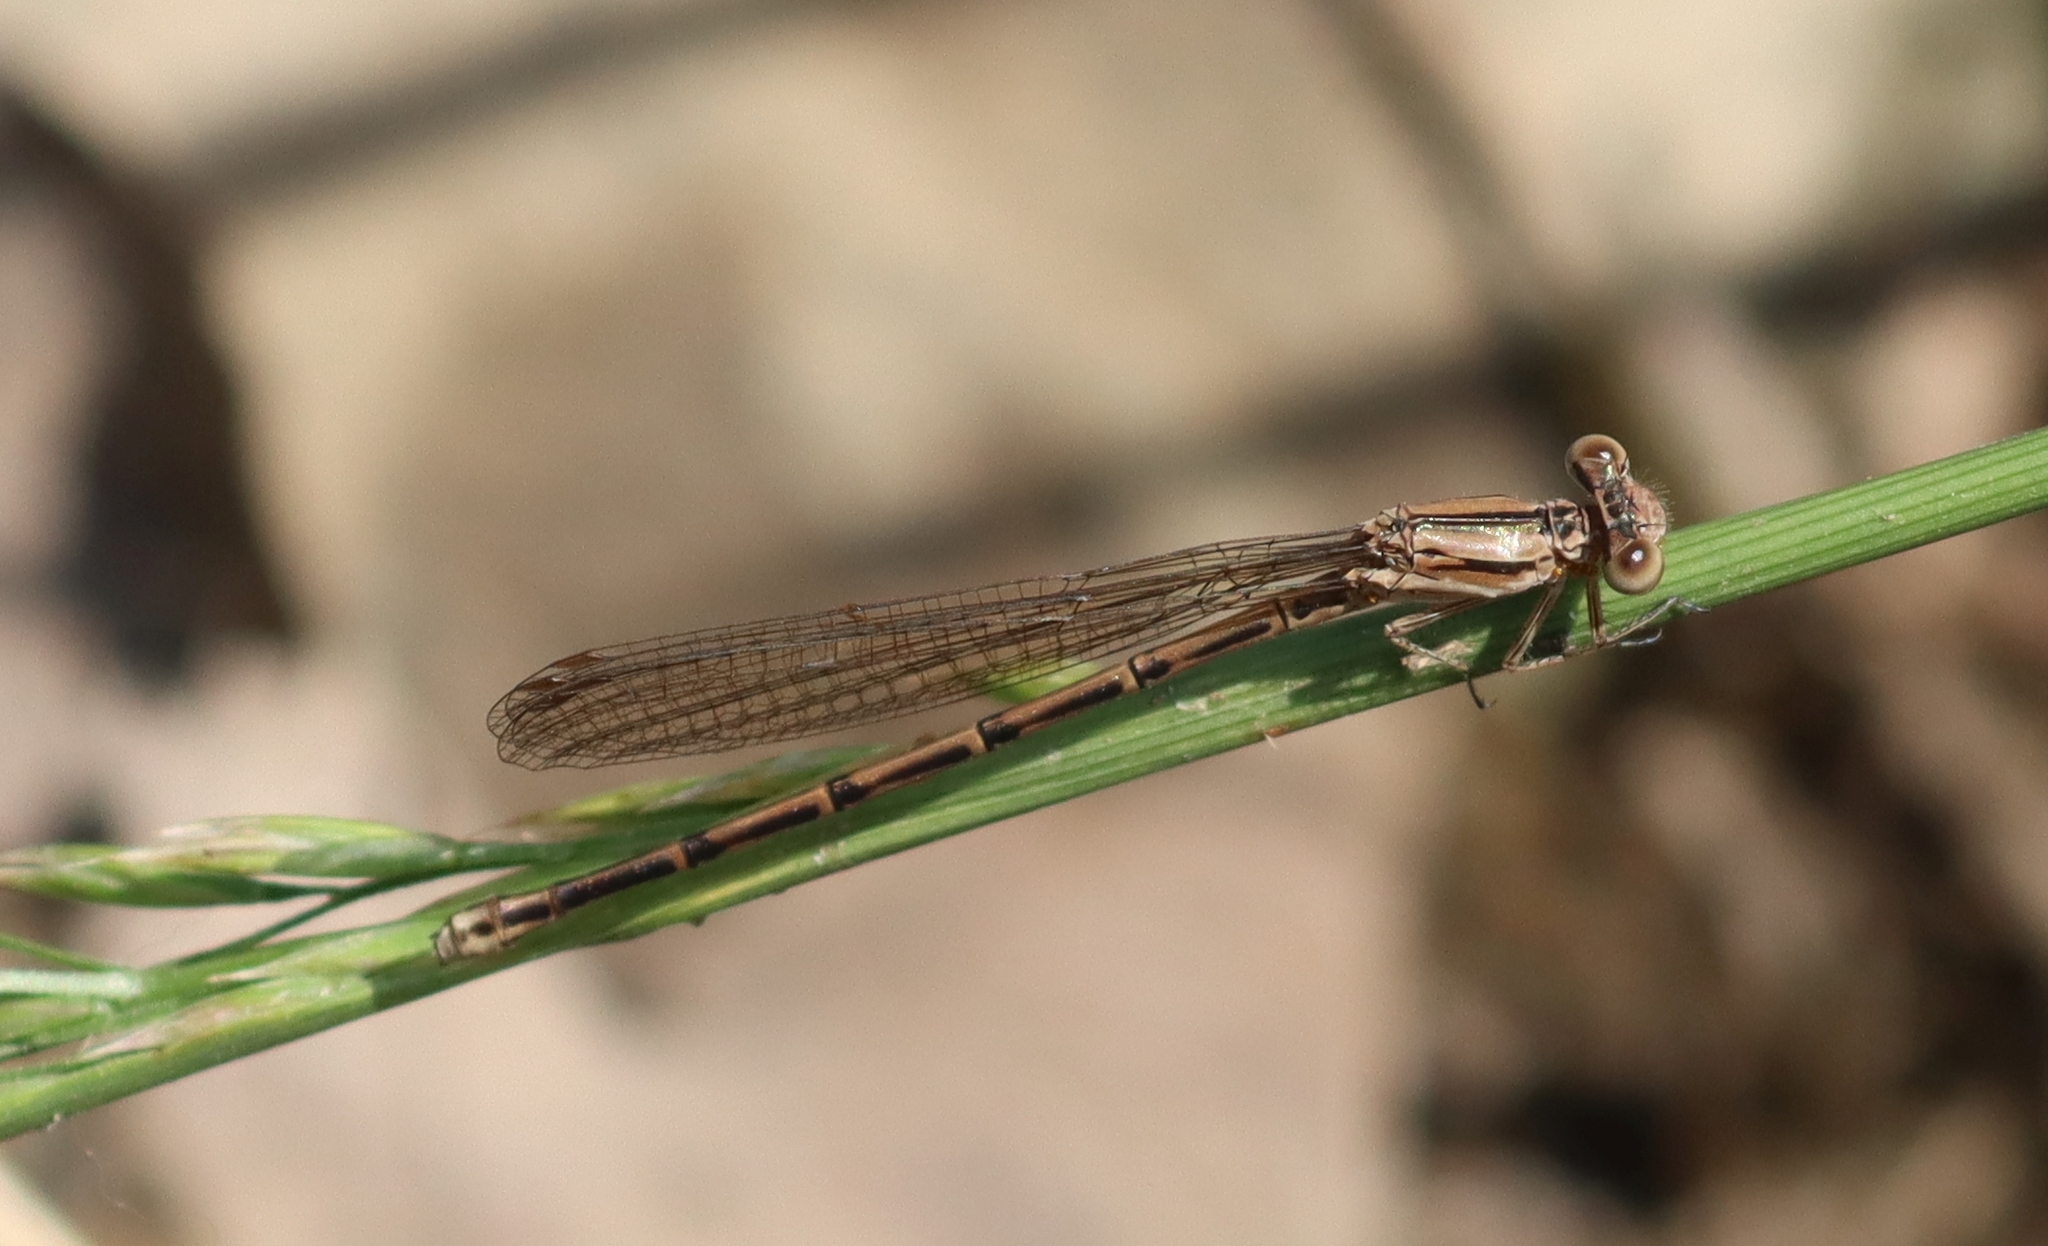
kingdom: Animalia
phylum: Arthropoda
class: Insecta
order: Odonata
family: Coenagrionidae
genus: Argia
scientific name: Argia fumipennis
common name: Variable dancer
